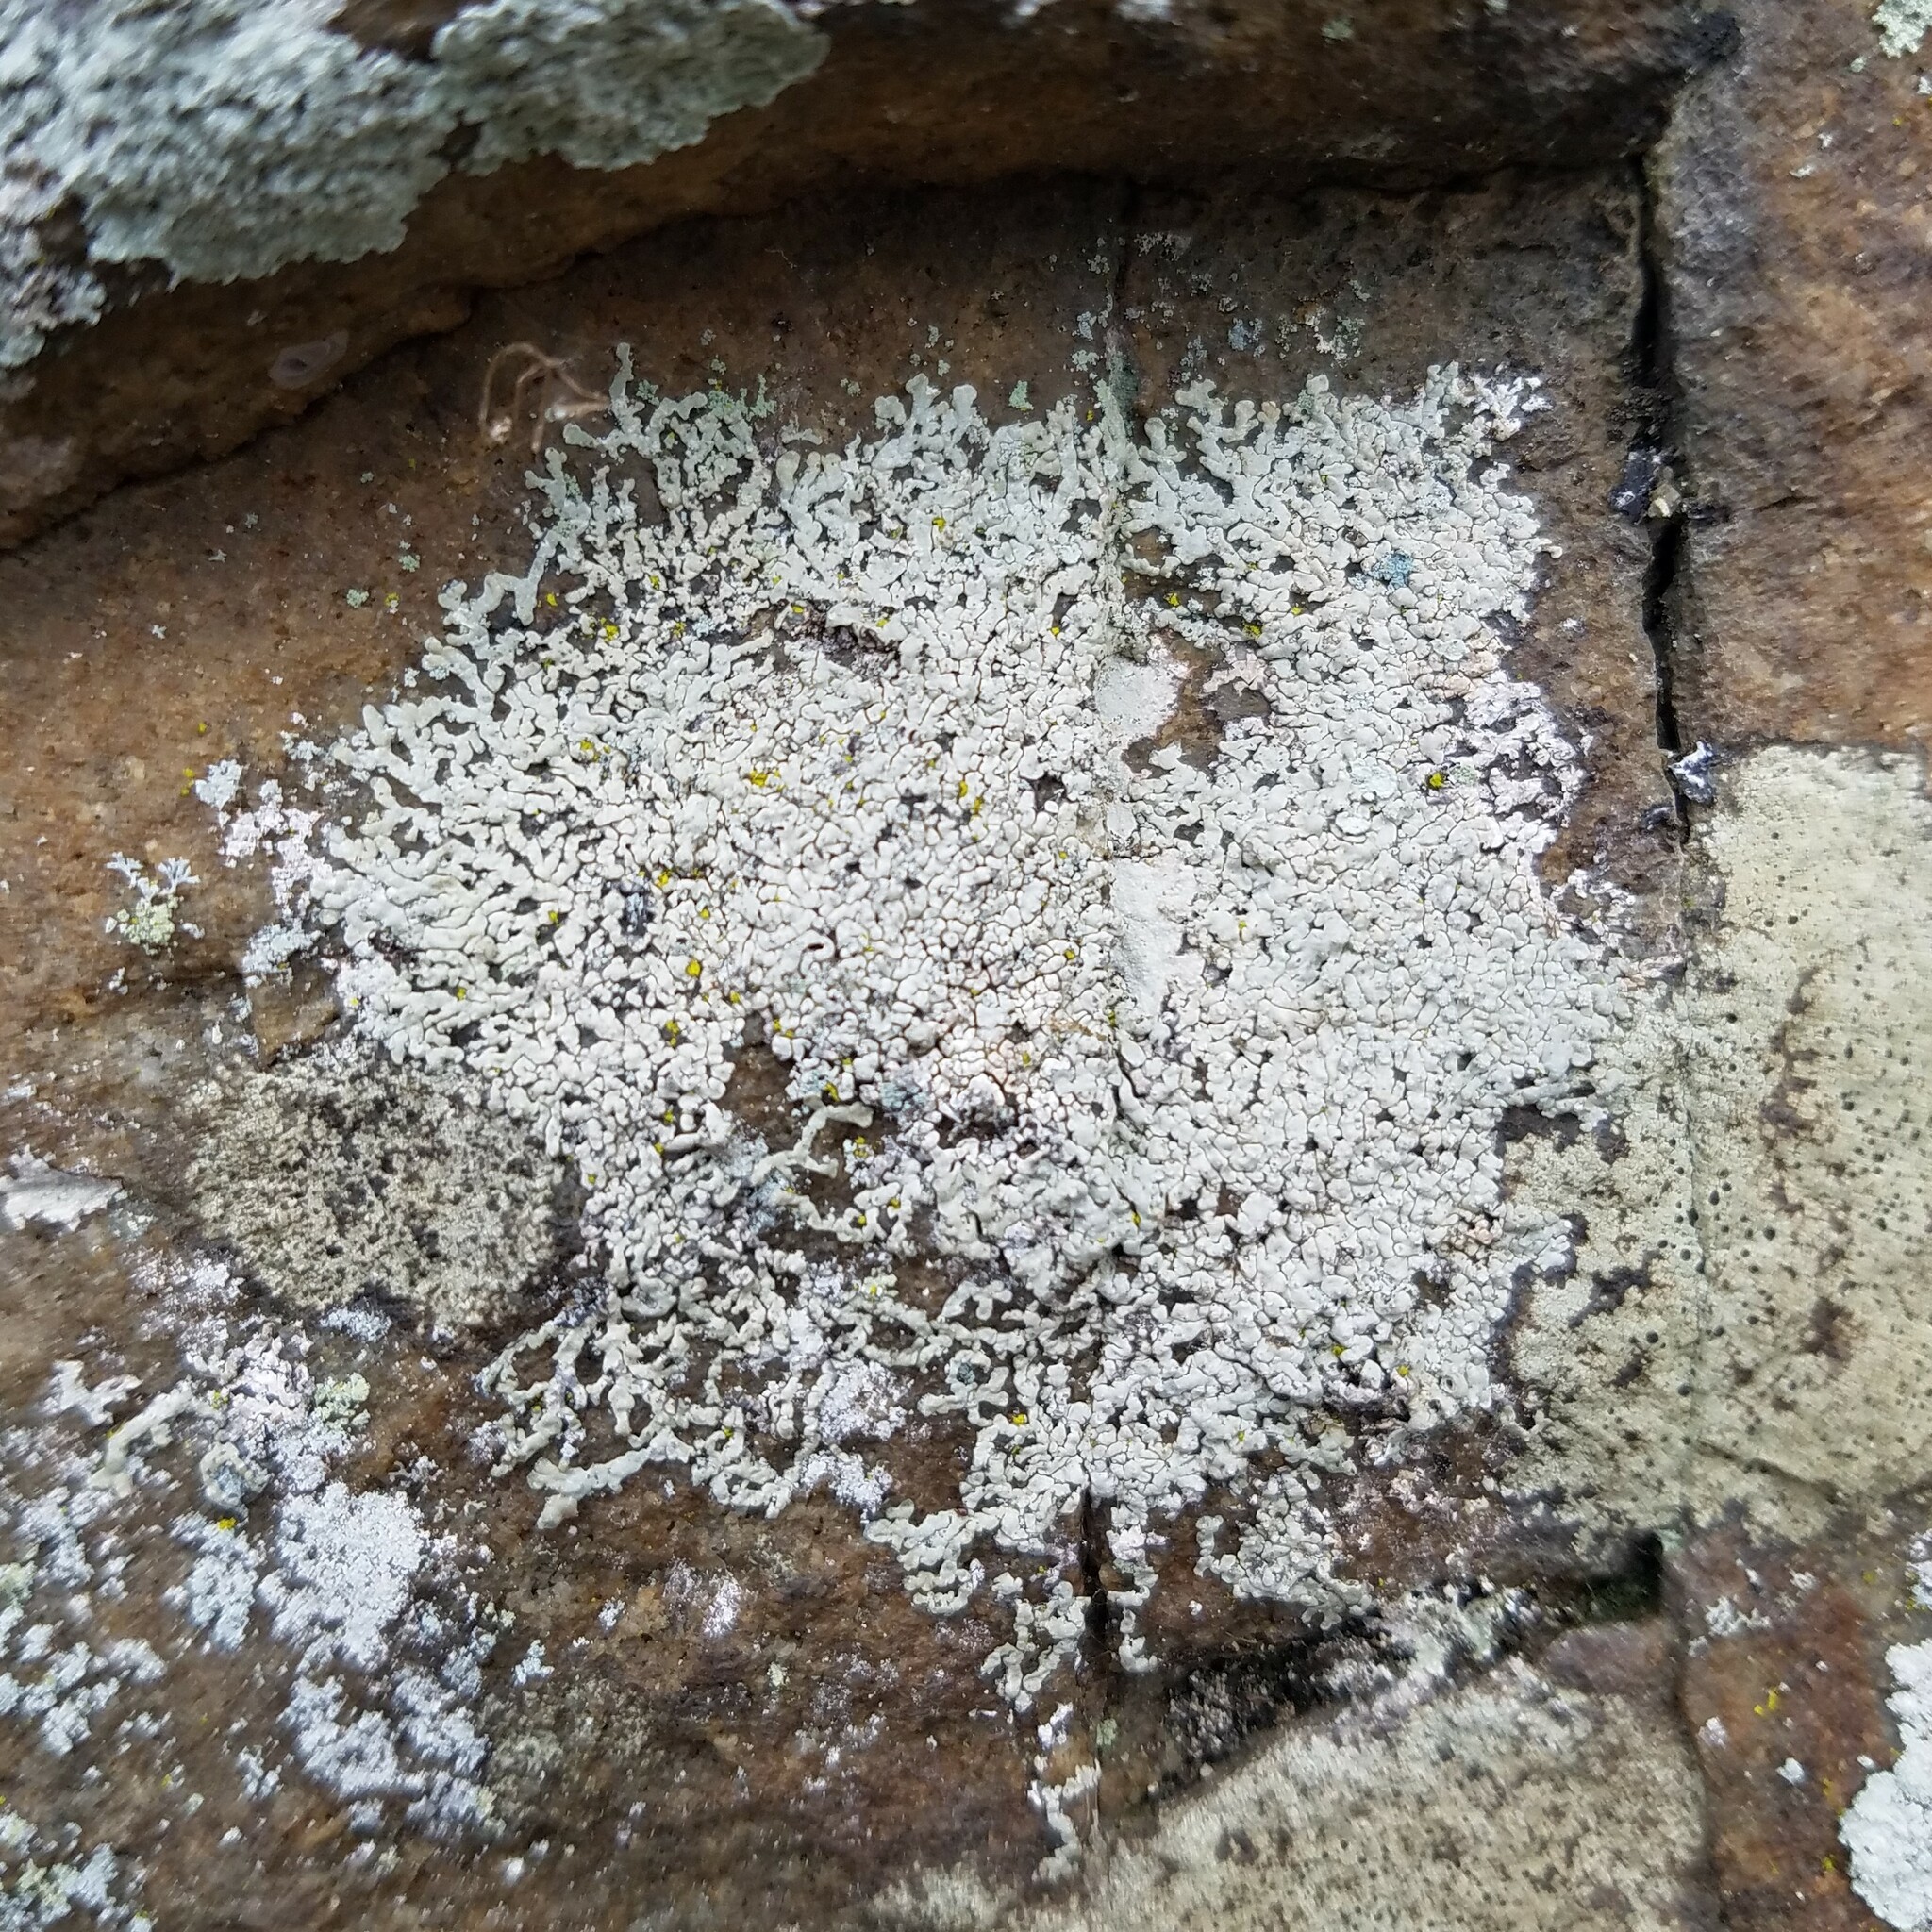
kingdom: Fungi
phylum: Ascomycota
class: Lecanoromycetes
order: Caliciales
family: Caliciaceae
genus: Dirinaria
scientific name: Dirinaria frostii
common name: Frosty medallion lichen
